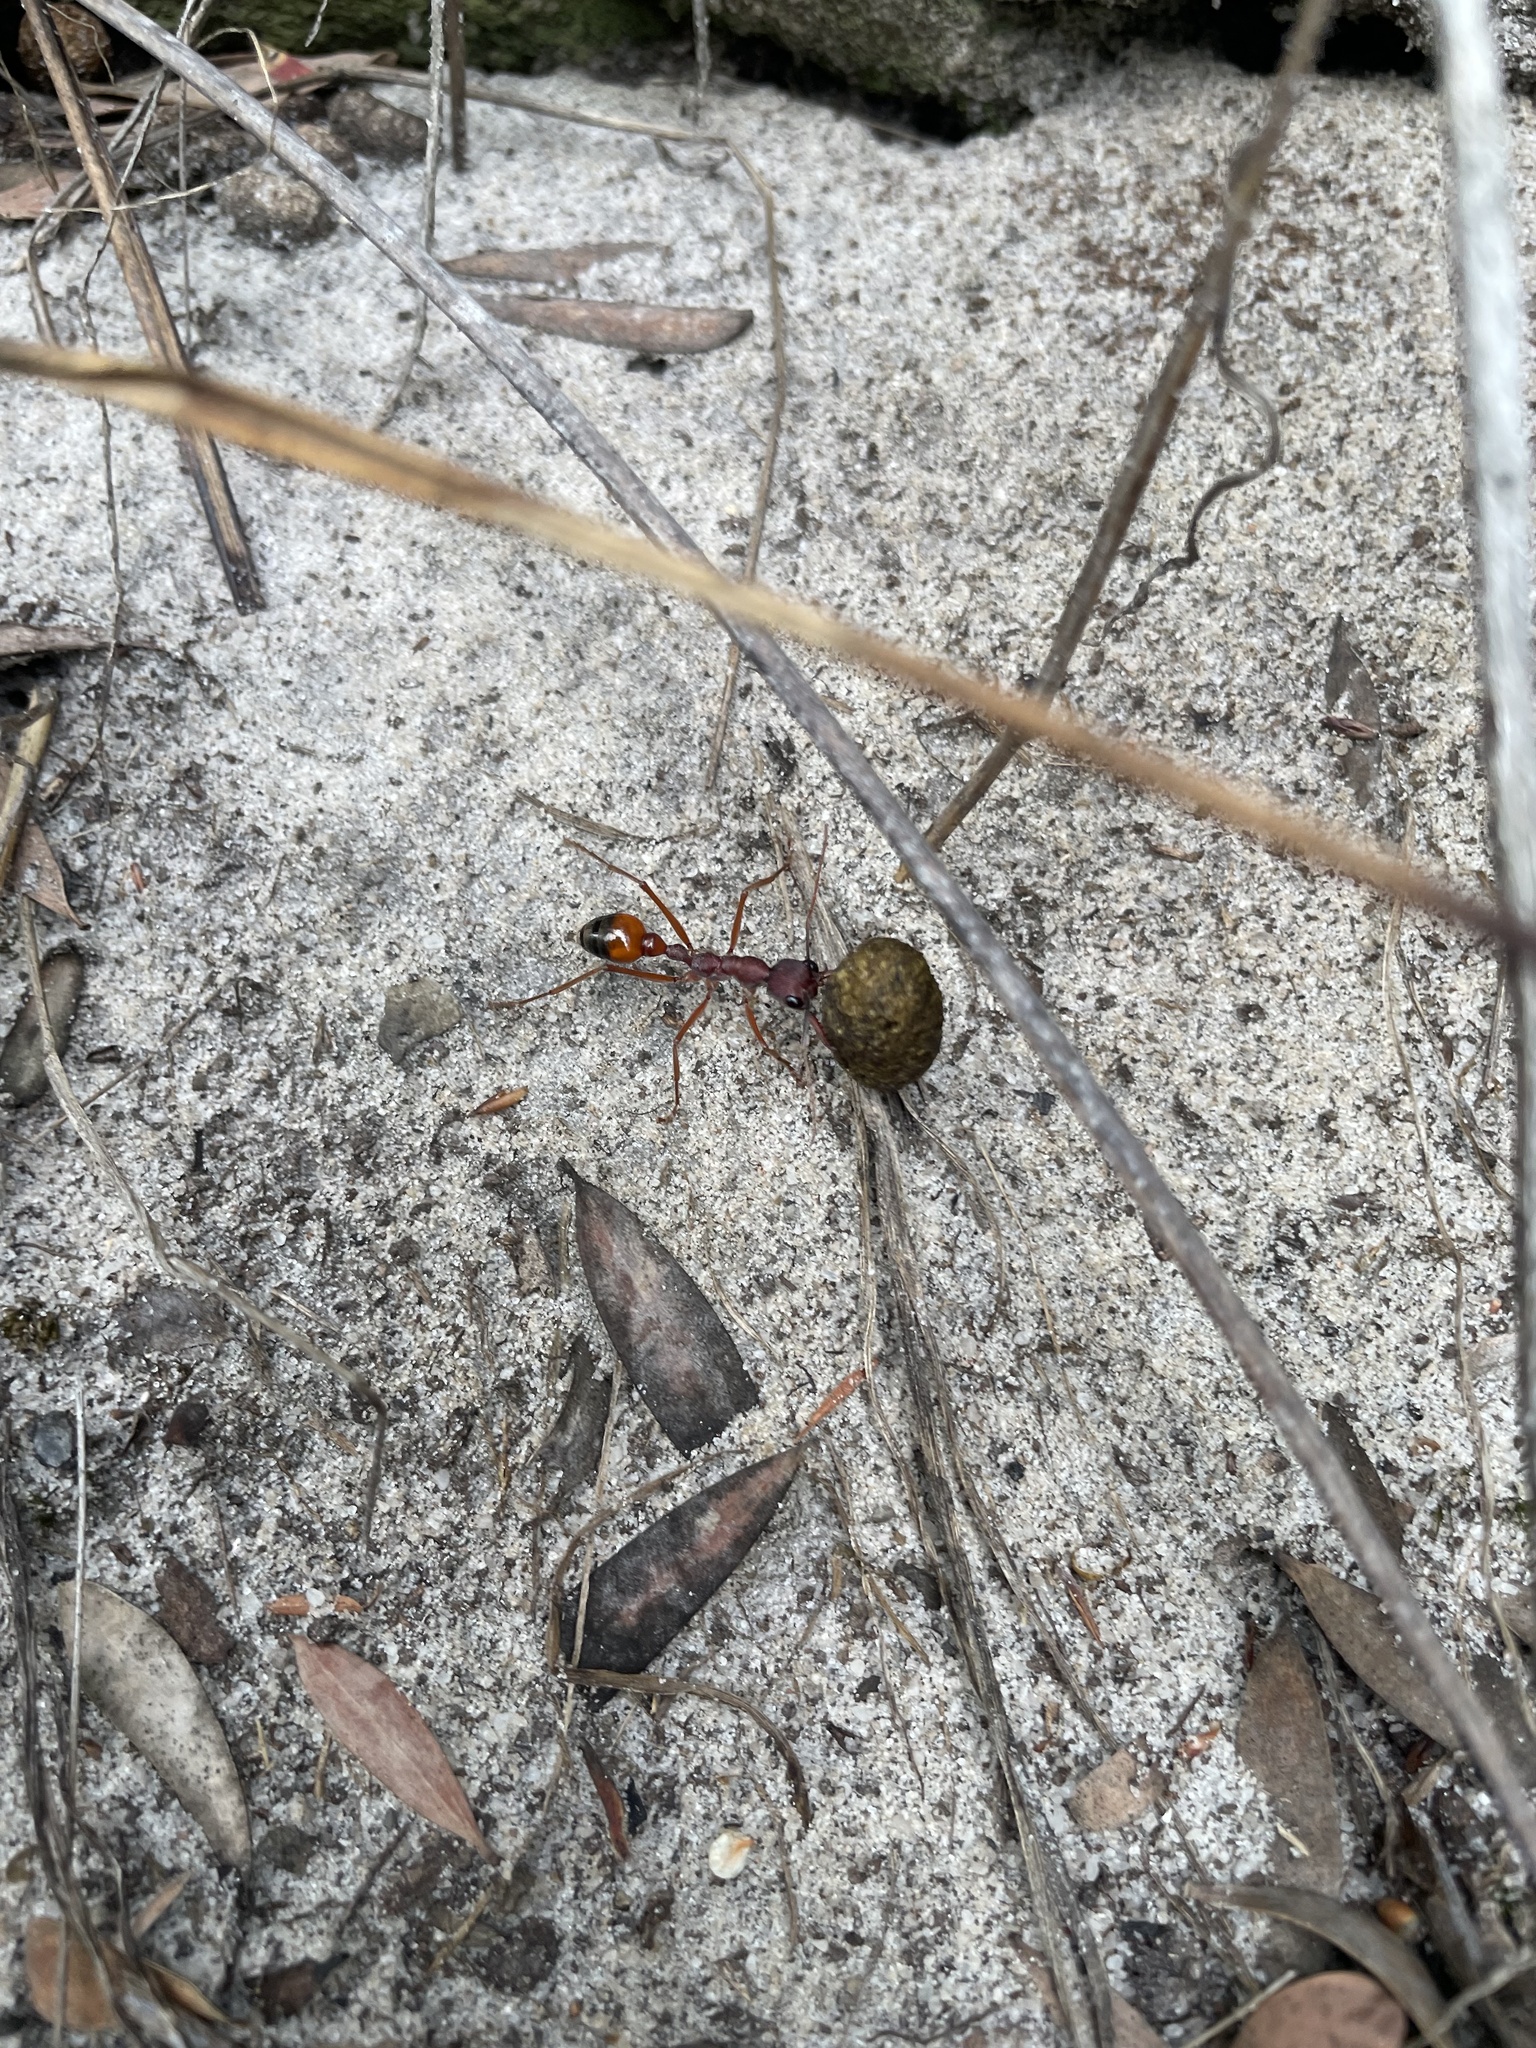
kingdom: Animalia
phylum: Arthropoda
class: Insecta
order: Hymenoptera
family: Formicidae
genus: Myrmecia
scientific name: Myrmecia nigriscapa
